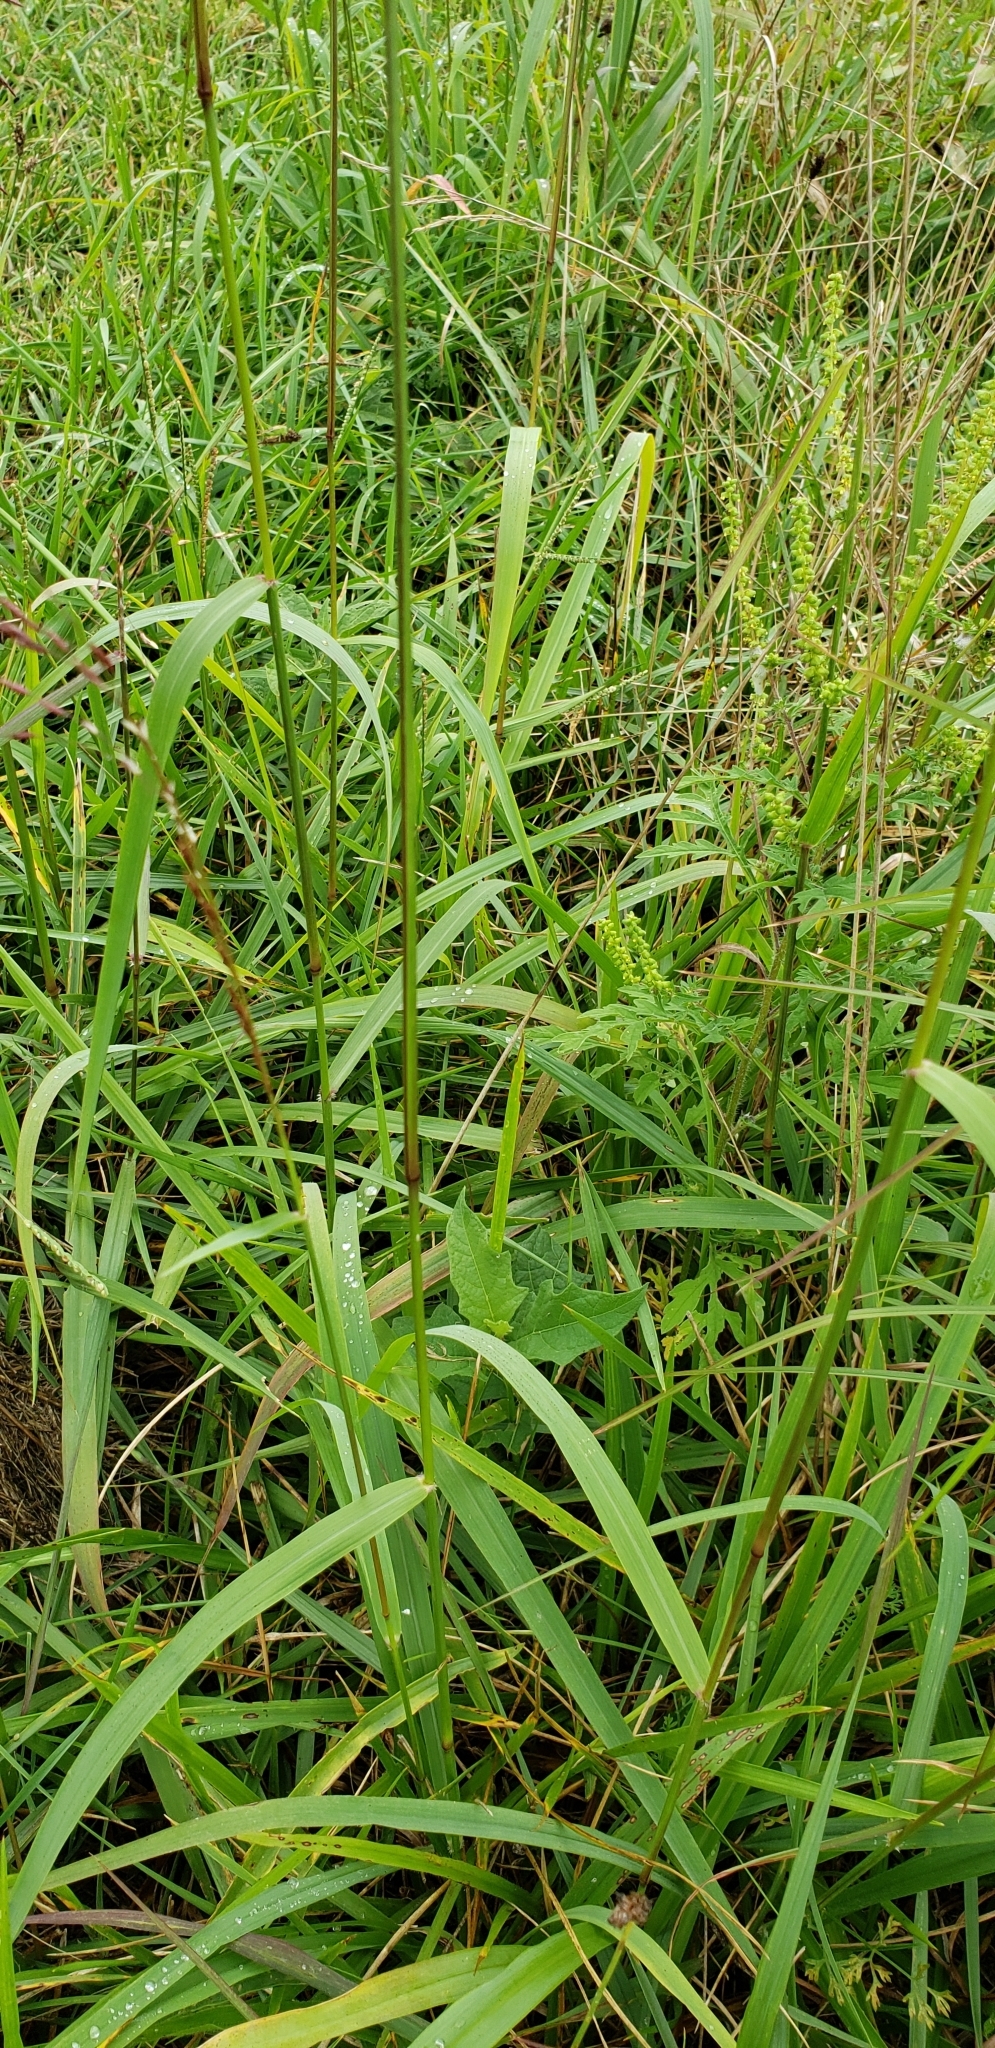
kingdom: Plantae
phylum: Tracheophyta
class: Liliopsida
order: Poales
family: Poaceae
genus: Tridens
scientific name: Tridens flavus
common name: Purpletop
